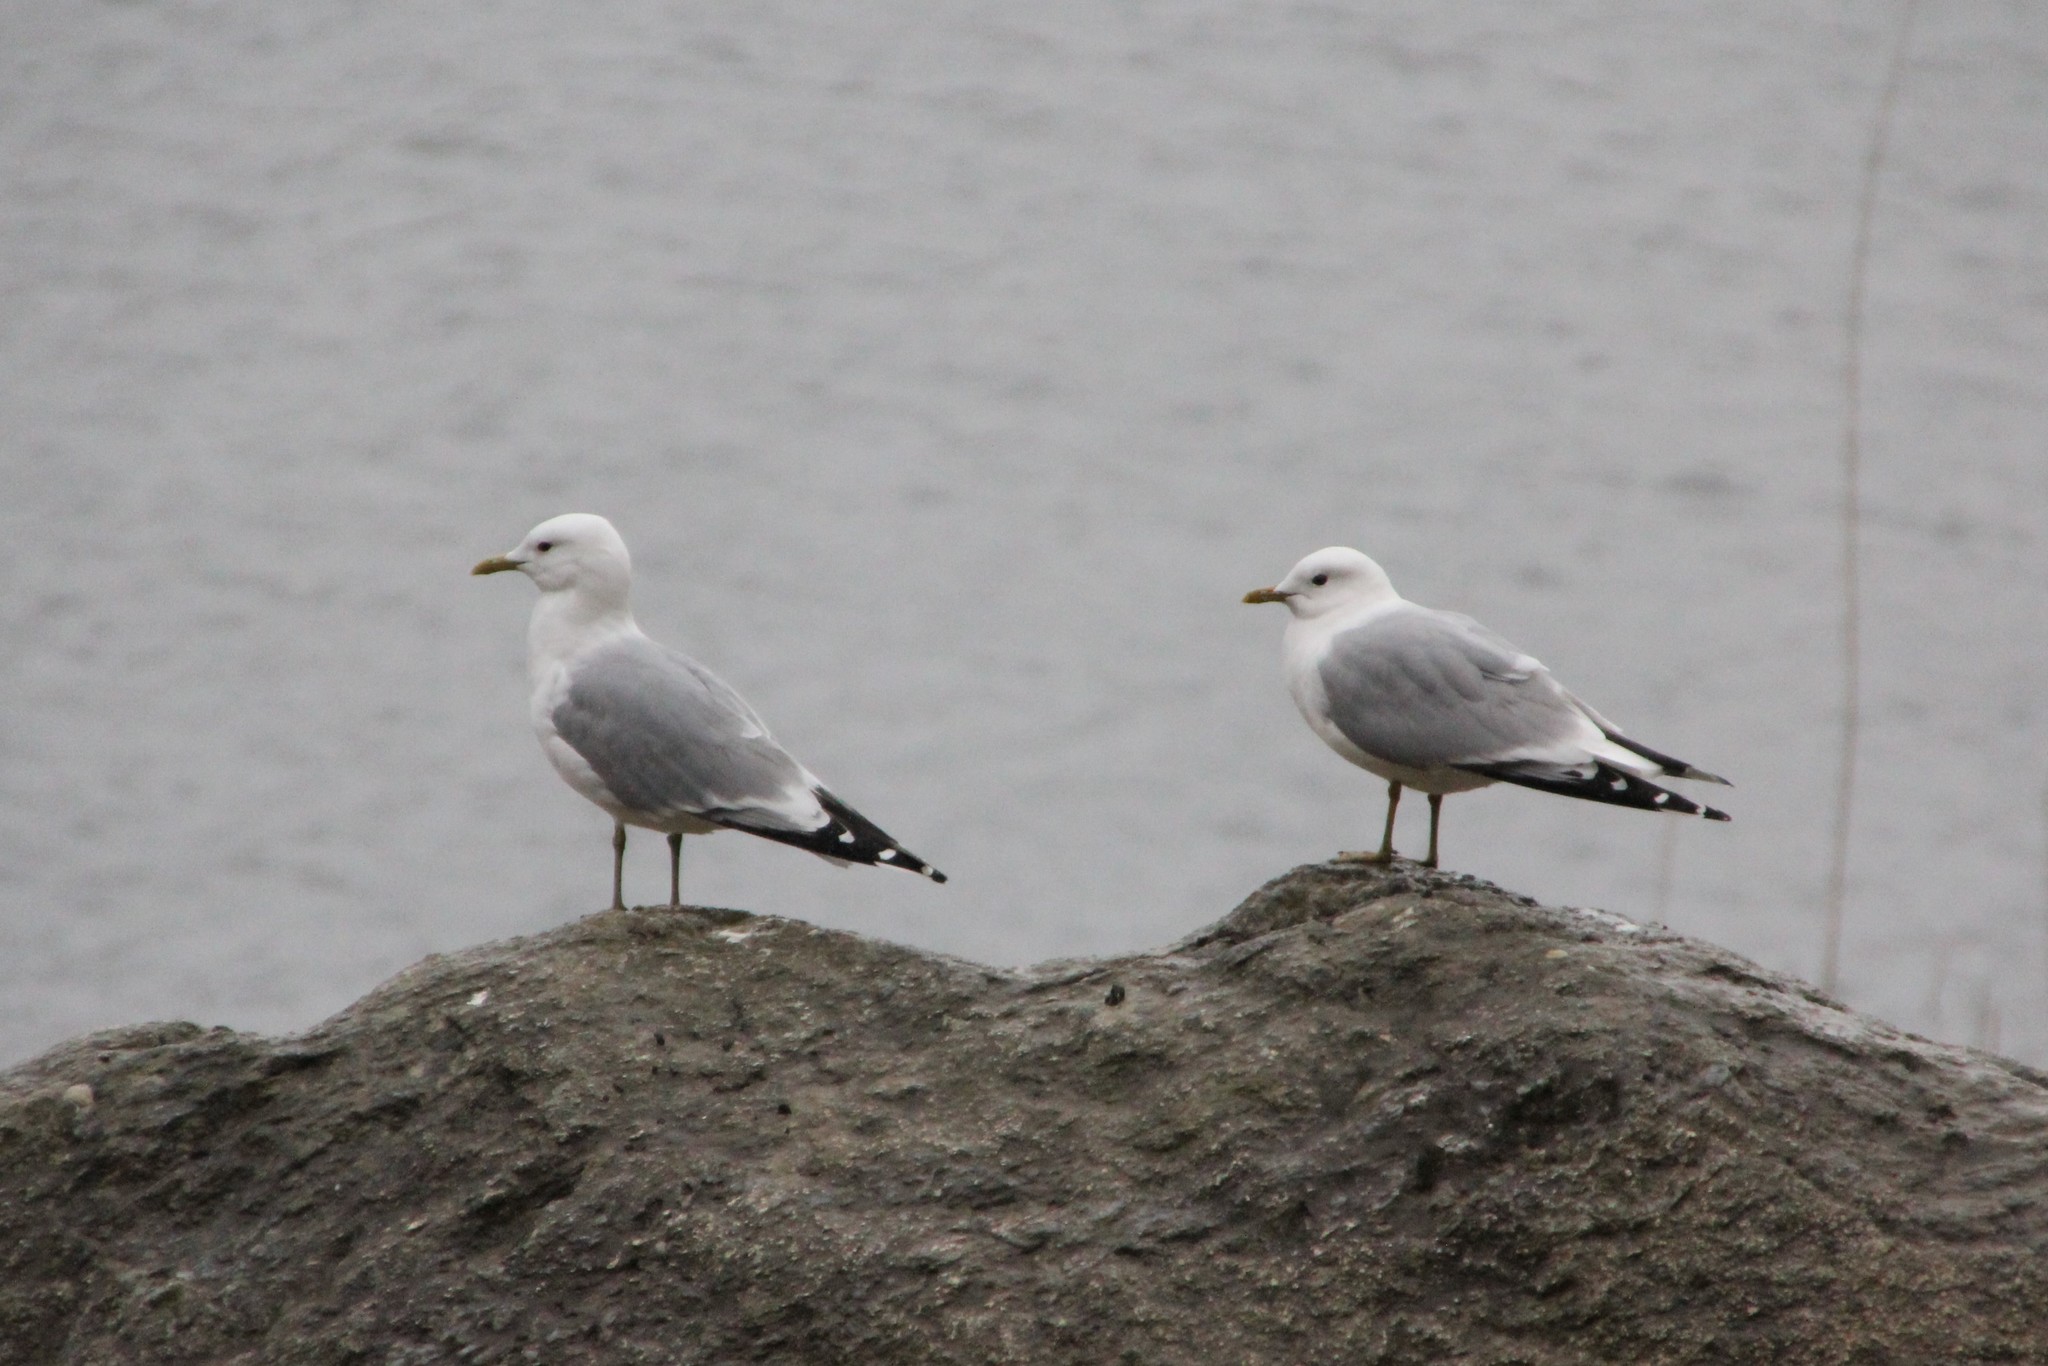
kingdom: Animalia
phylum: Chordata
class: Aves
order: Charadriiformes
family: Laridae
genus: Larus
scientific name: Larus canus
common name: Mew gull
